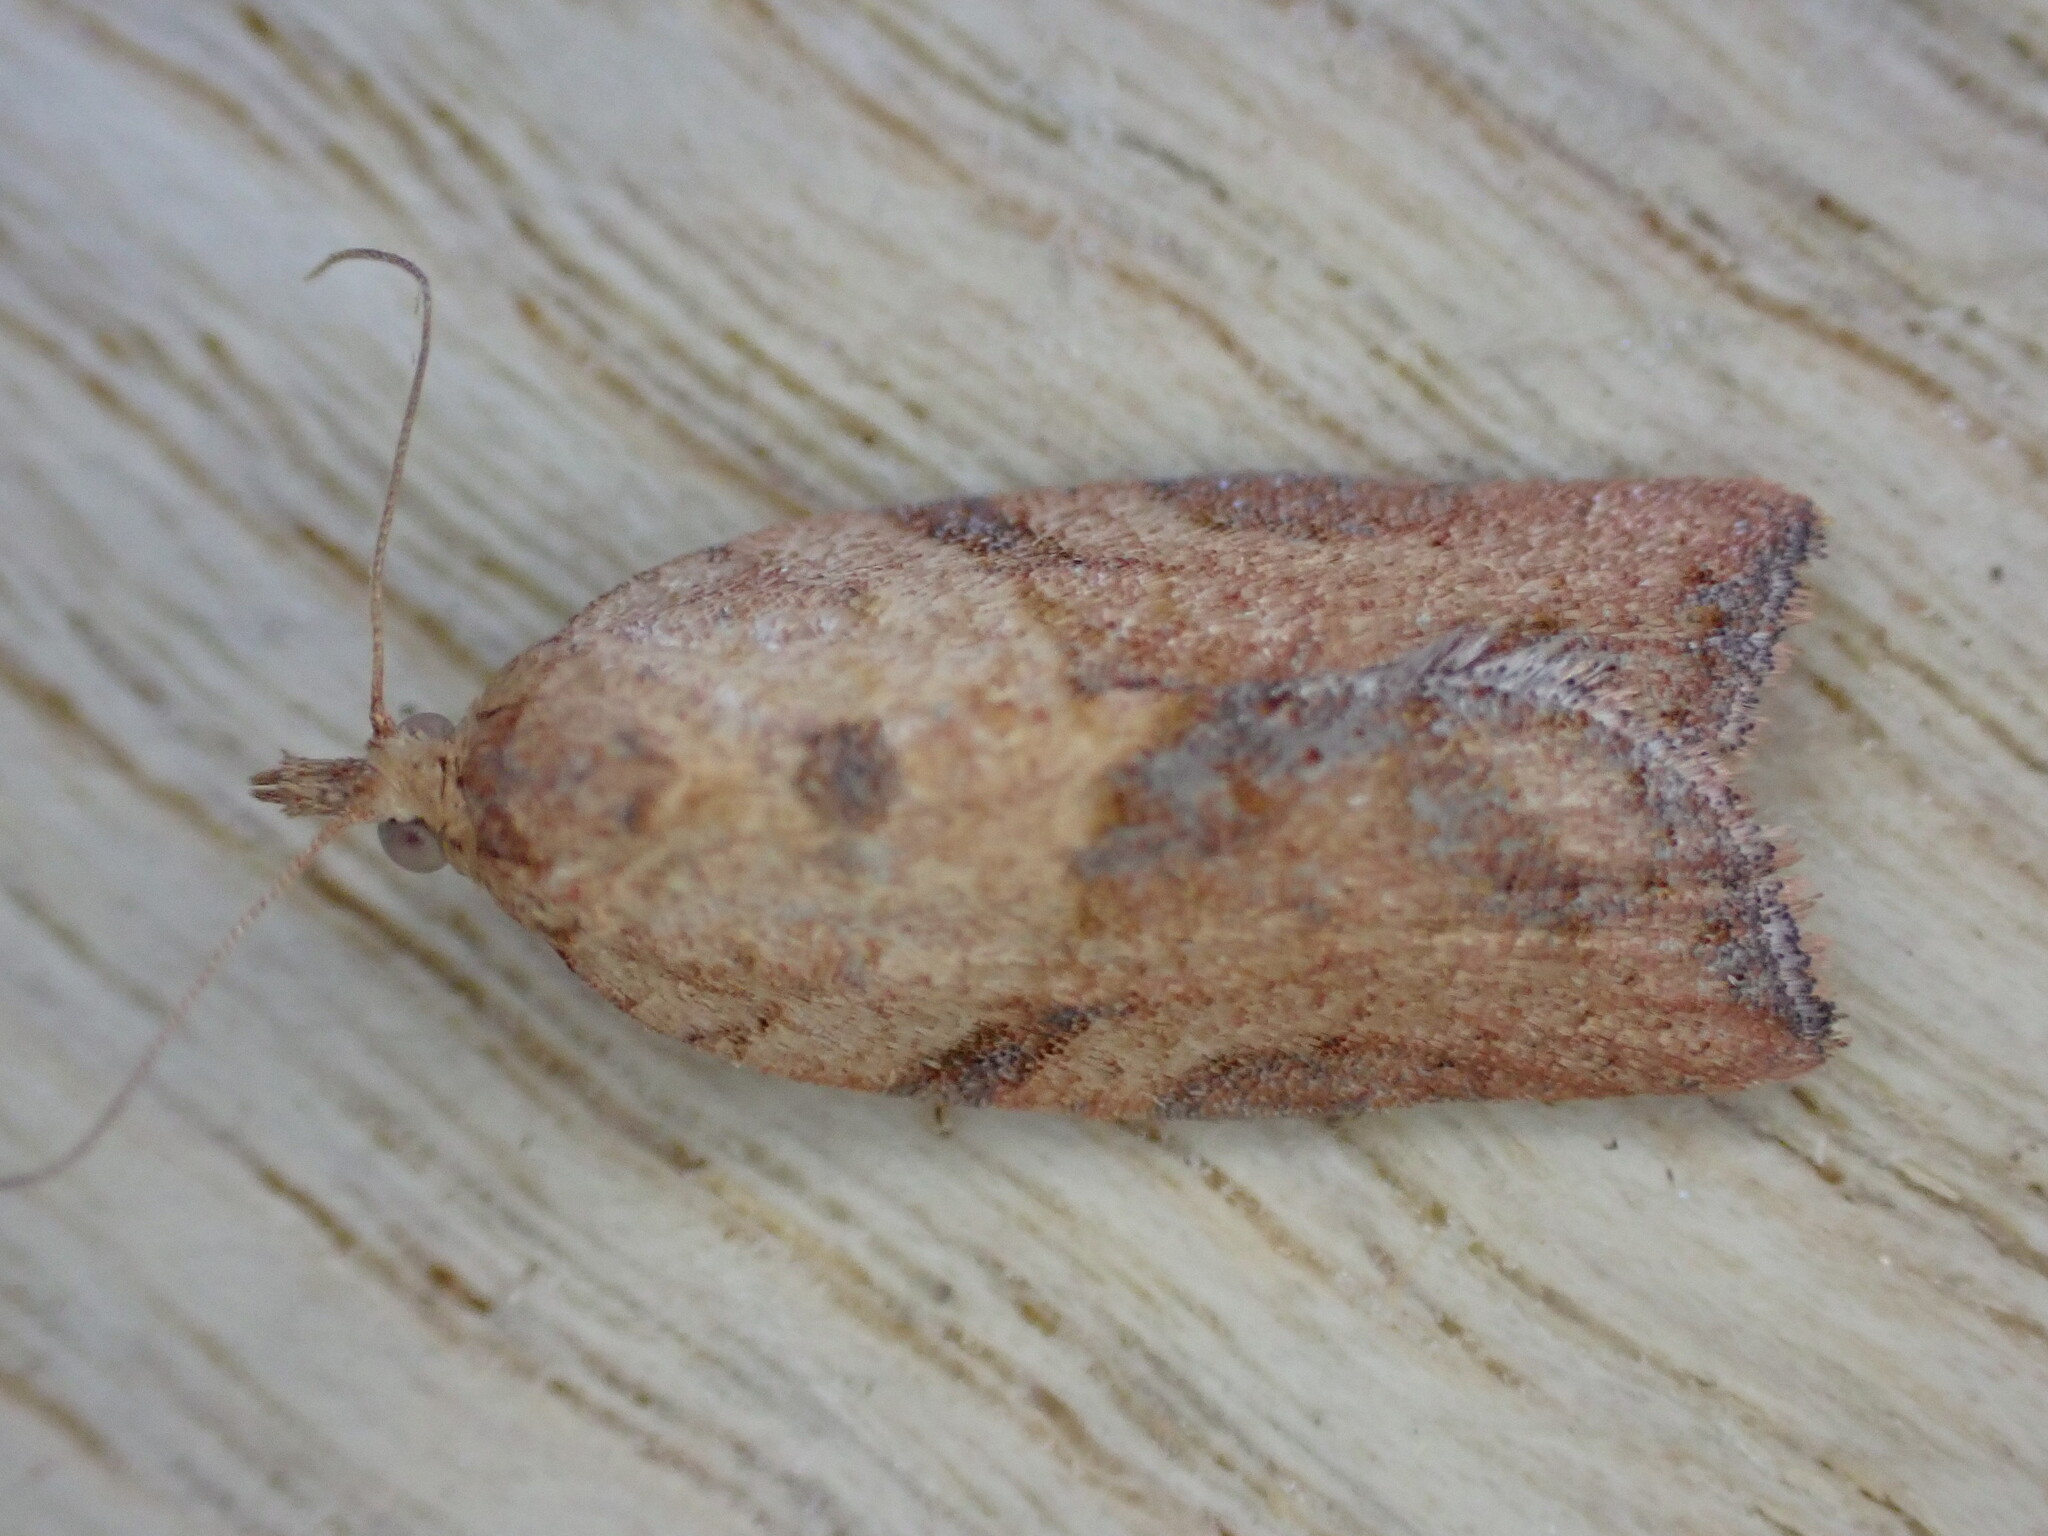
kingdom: Animalia
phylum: Arthropoda
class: Insecta
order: Lepidoptera
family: Tortricidae
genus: Epiphyas
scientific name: Epiphyas postvittana
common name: Light brown apple moth
